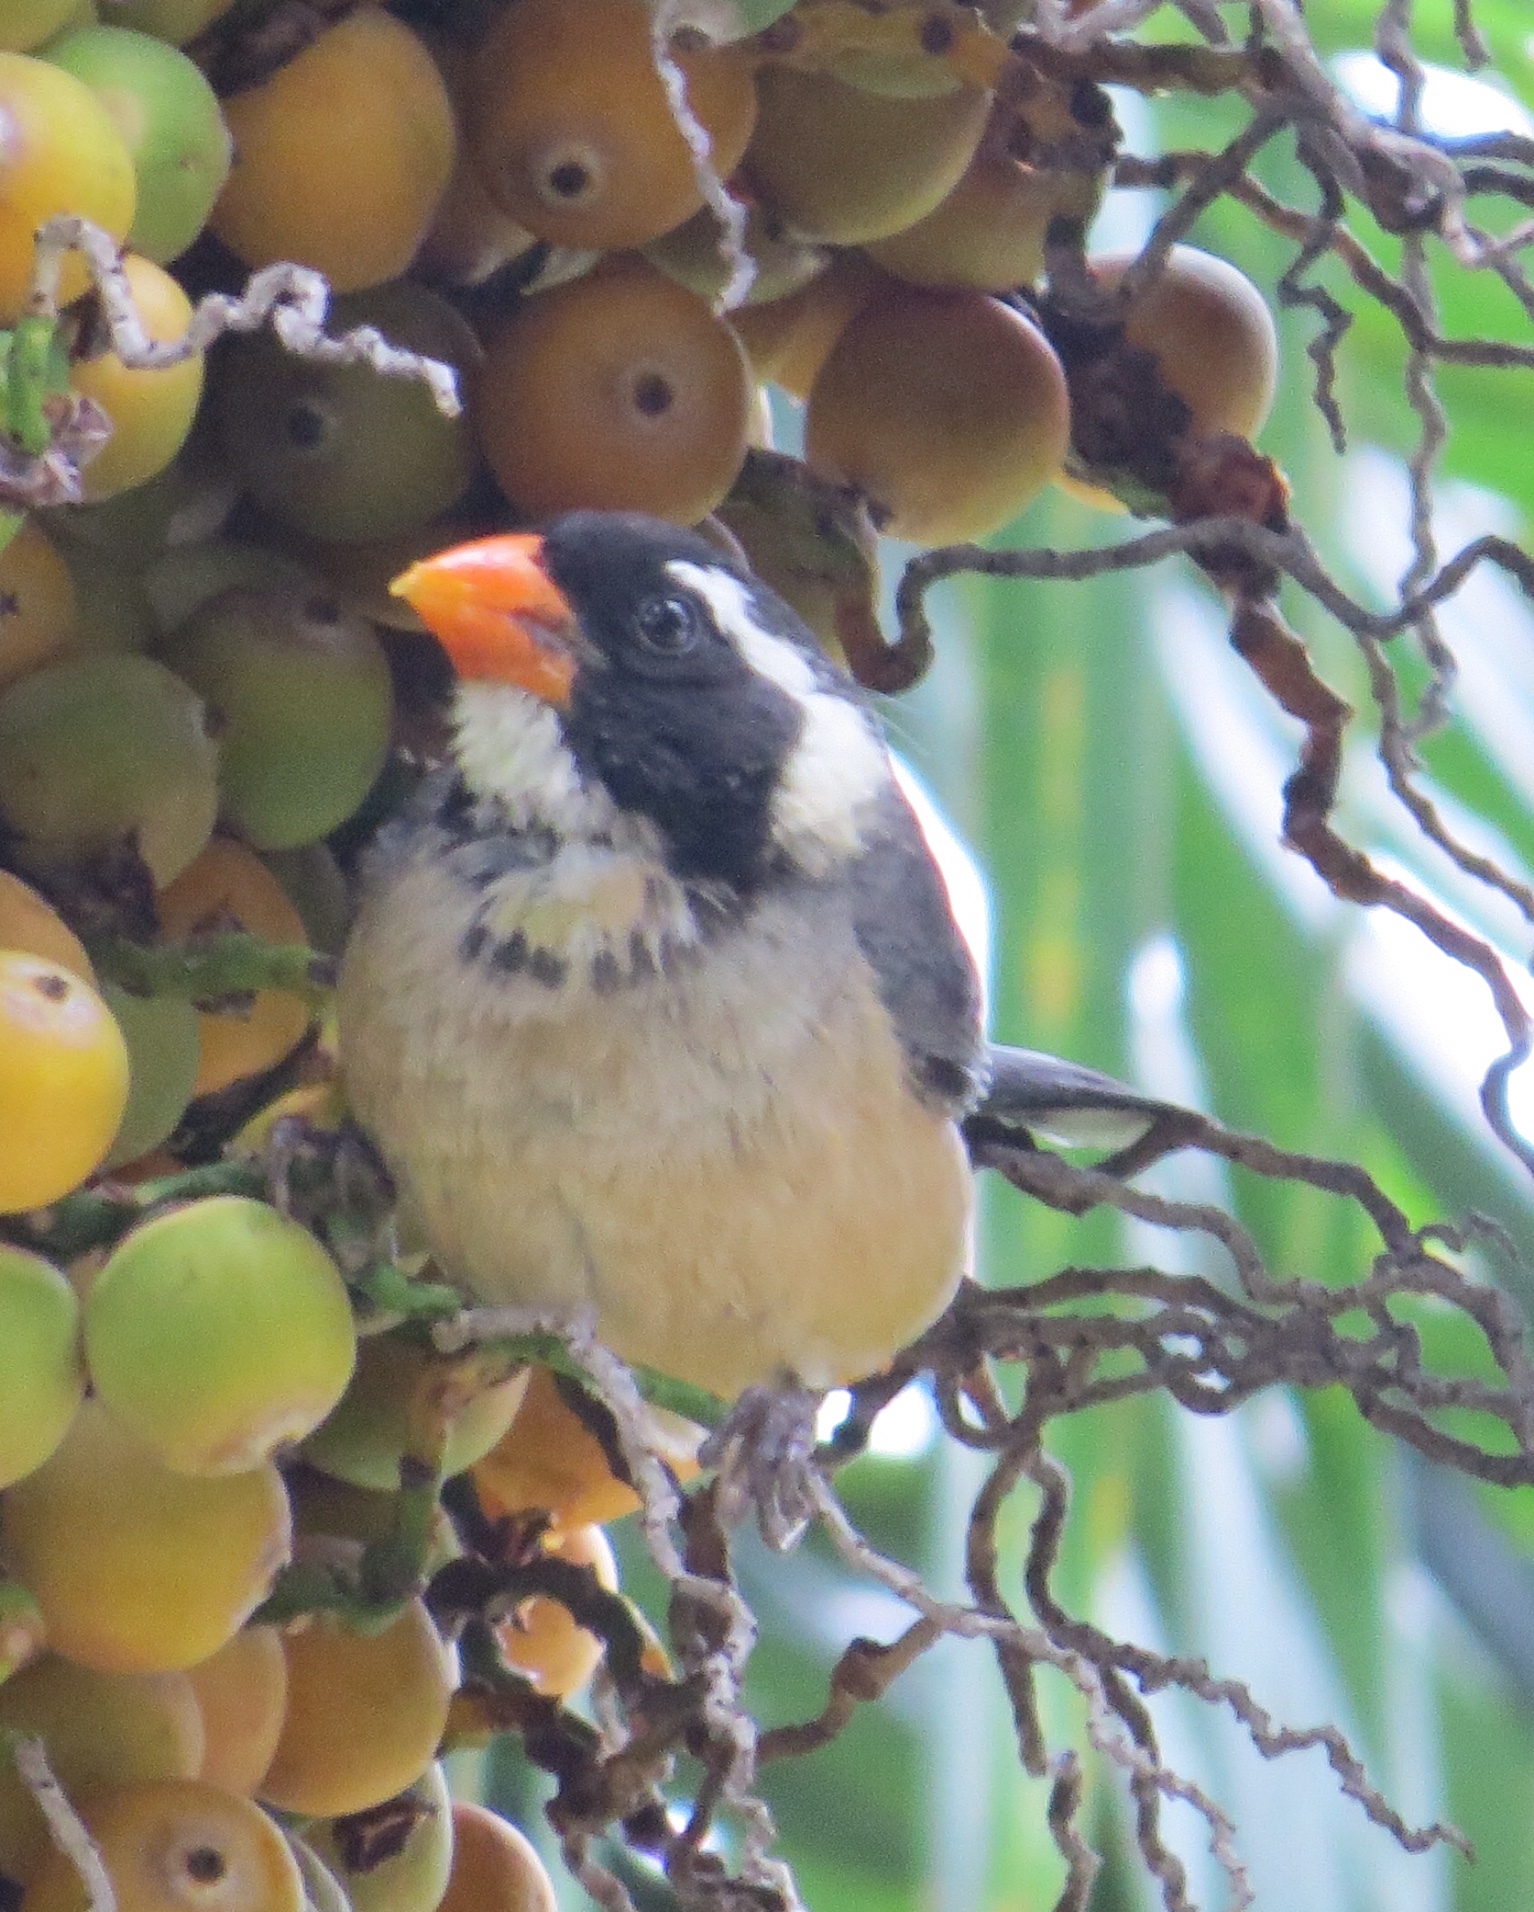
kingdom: Animalia
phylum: Chordata
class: Aves
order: Passeriformes
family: Thraupidae
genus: Saltator
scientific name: Saltator aurantiirostris
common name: Golden-billed saltator
